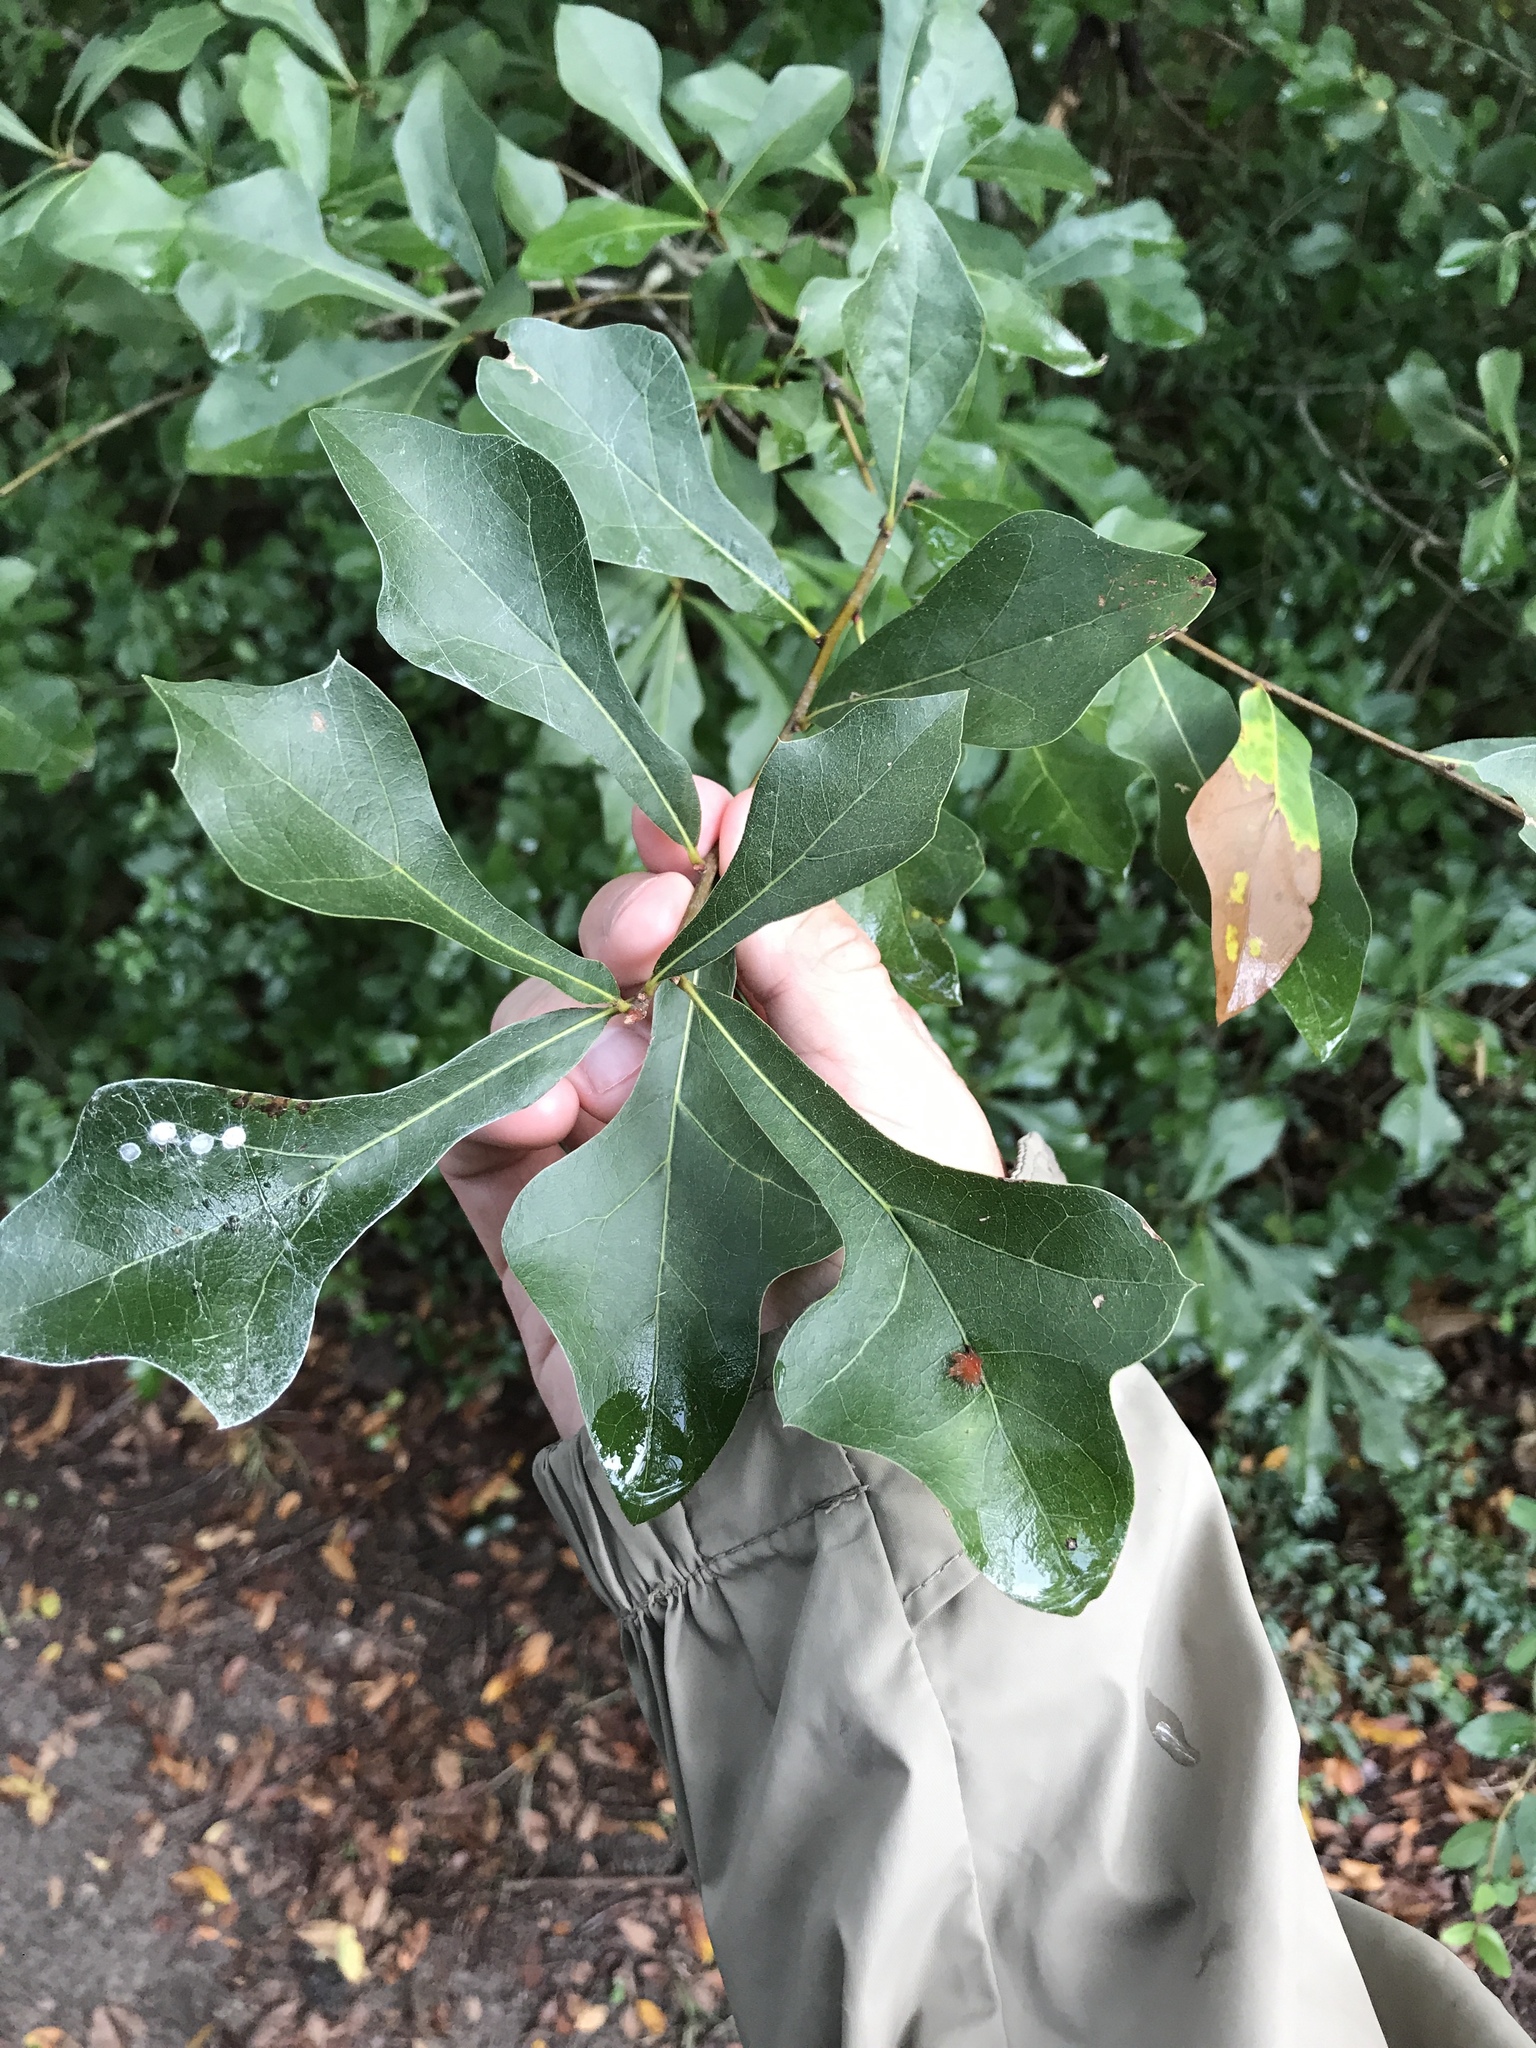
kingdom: Plantae
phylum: Tracheophyta
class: Magnoliopsida
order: Fagales
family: Fagaceae
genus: Quercus
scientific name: Quercus nigra
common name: Water oak
